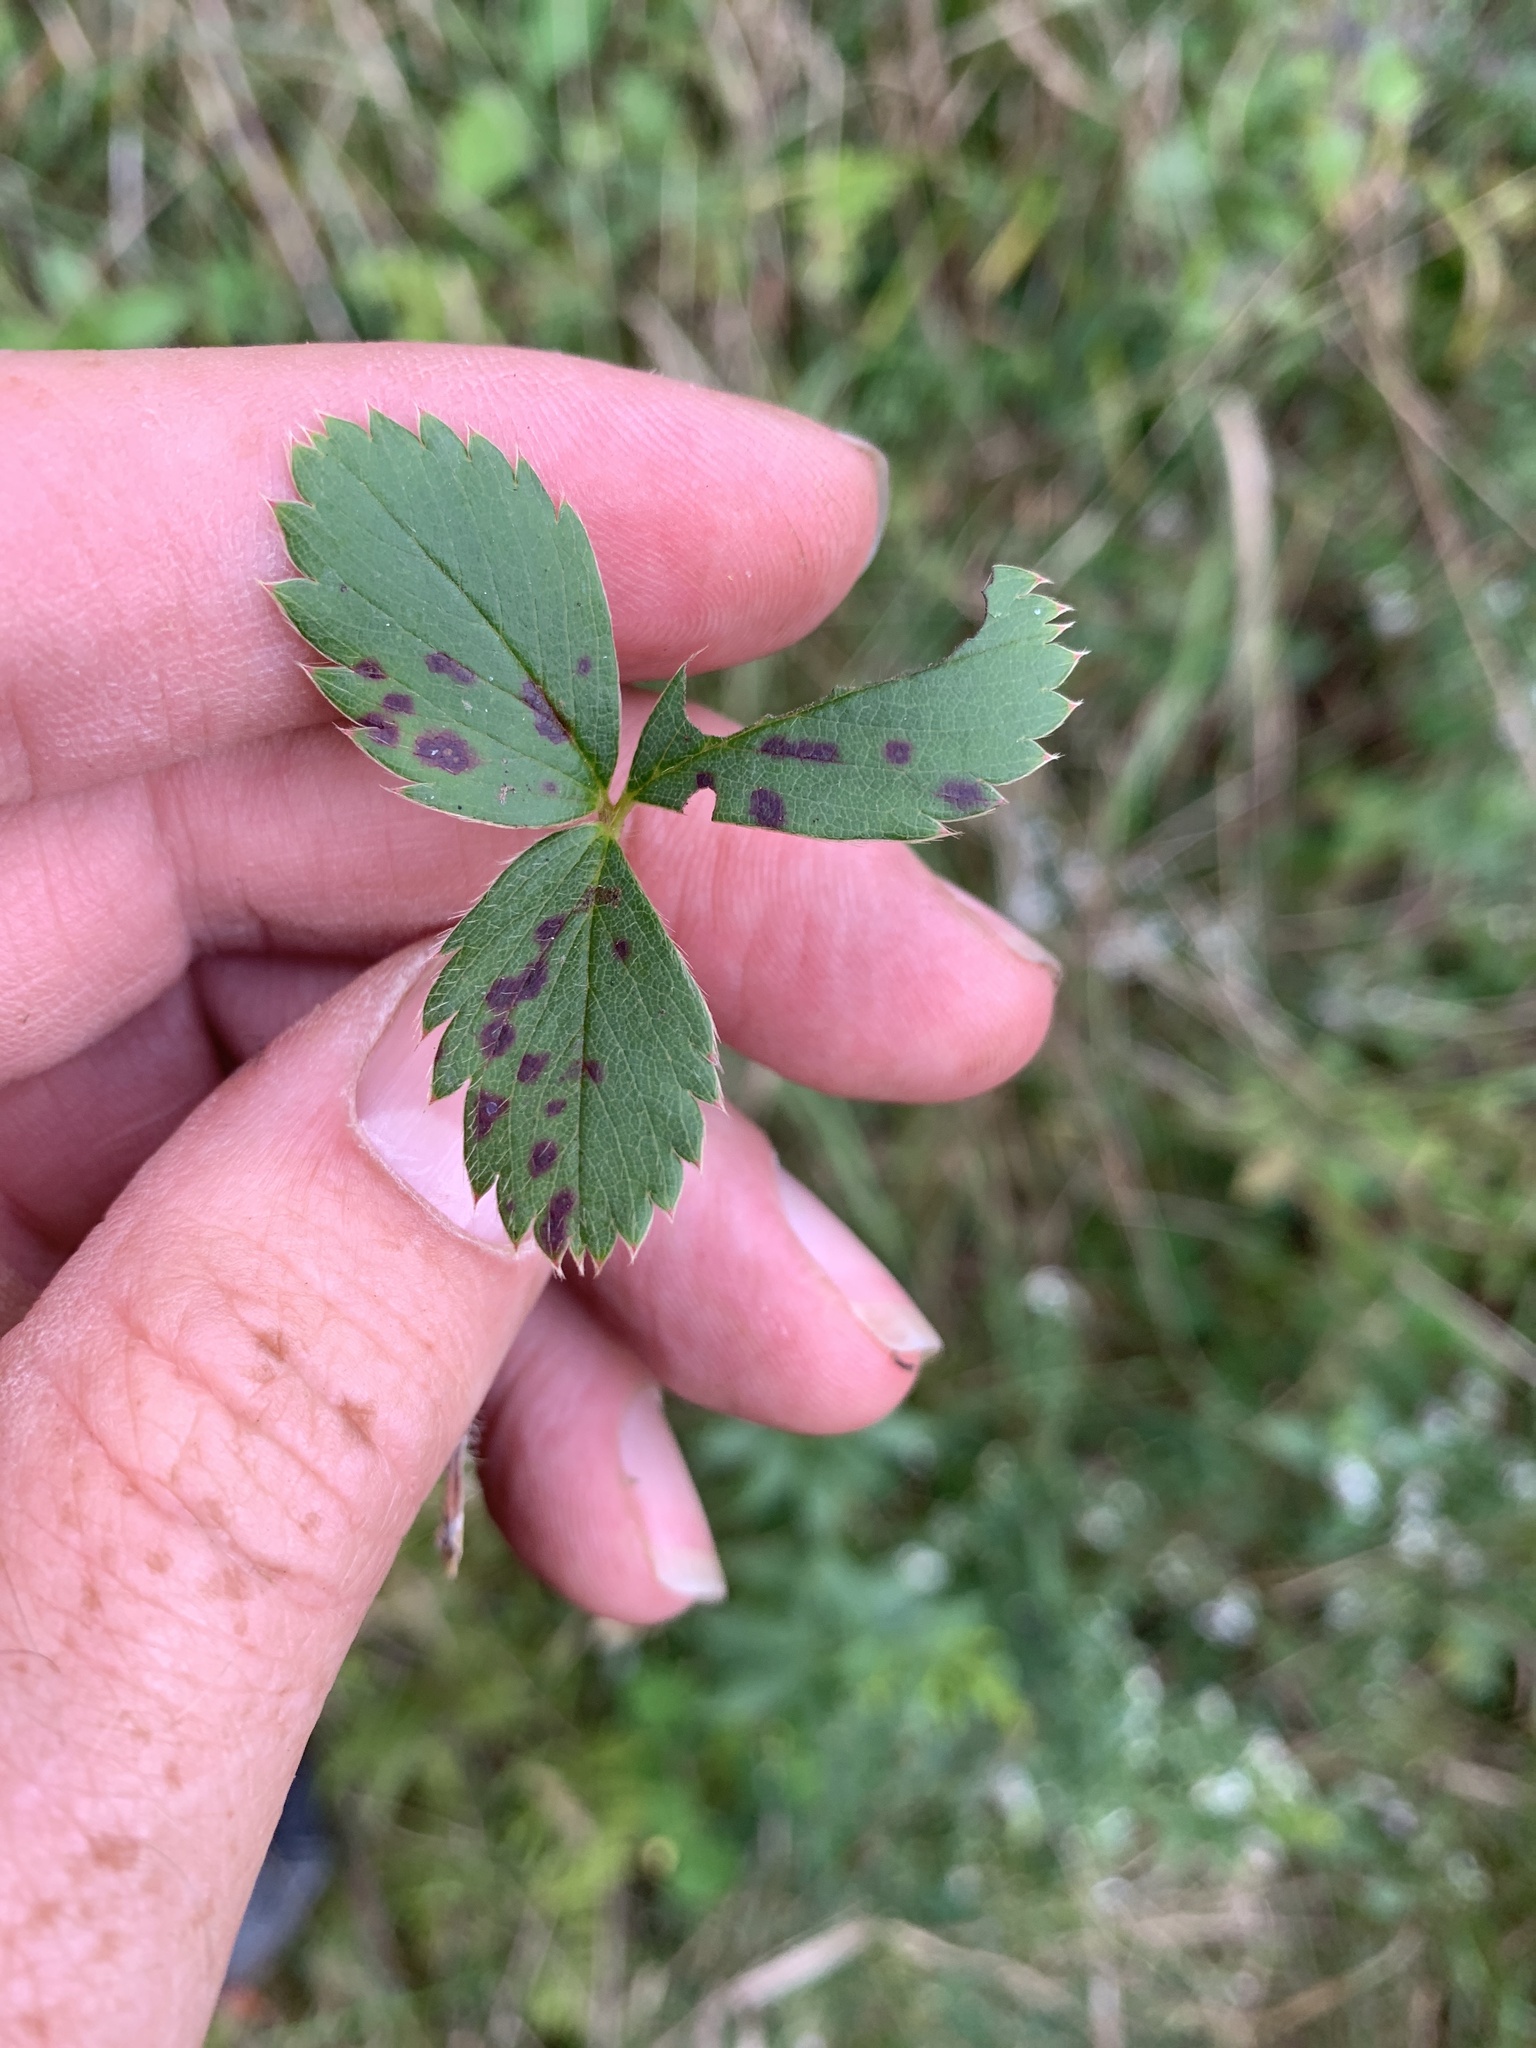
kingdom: Plantae
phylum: Tracheophyta
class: Magnoliopsida
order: Rosales
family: Rosaceae
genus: Fragaria
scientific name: Fragaria virginiana
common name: Thickleaved wild strawberry
